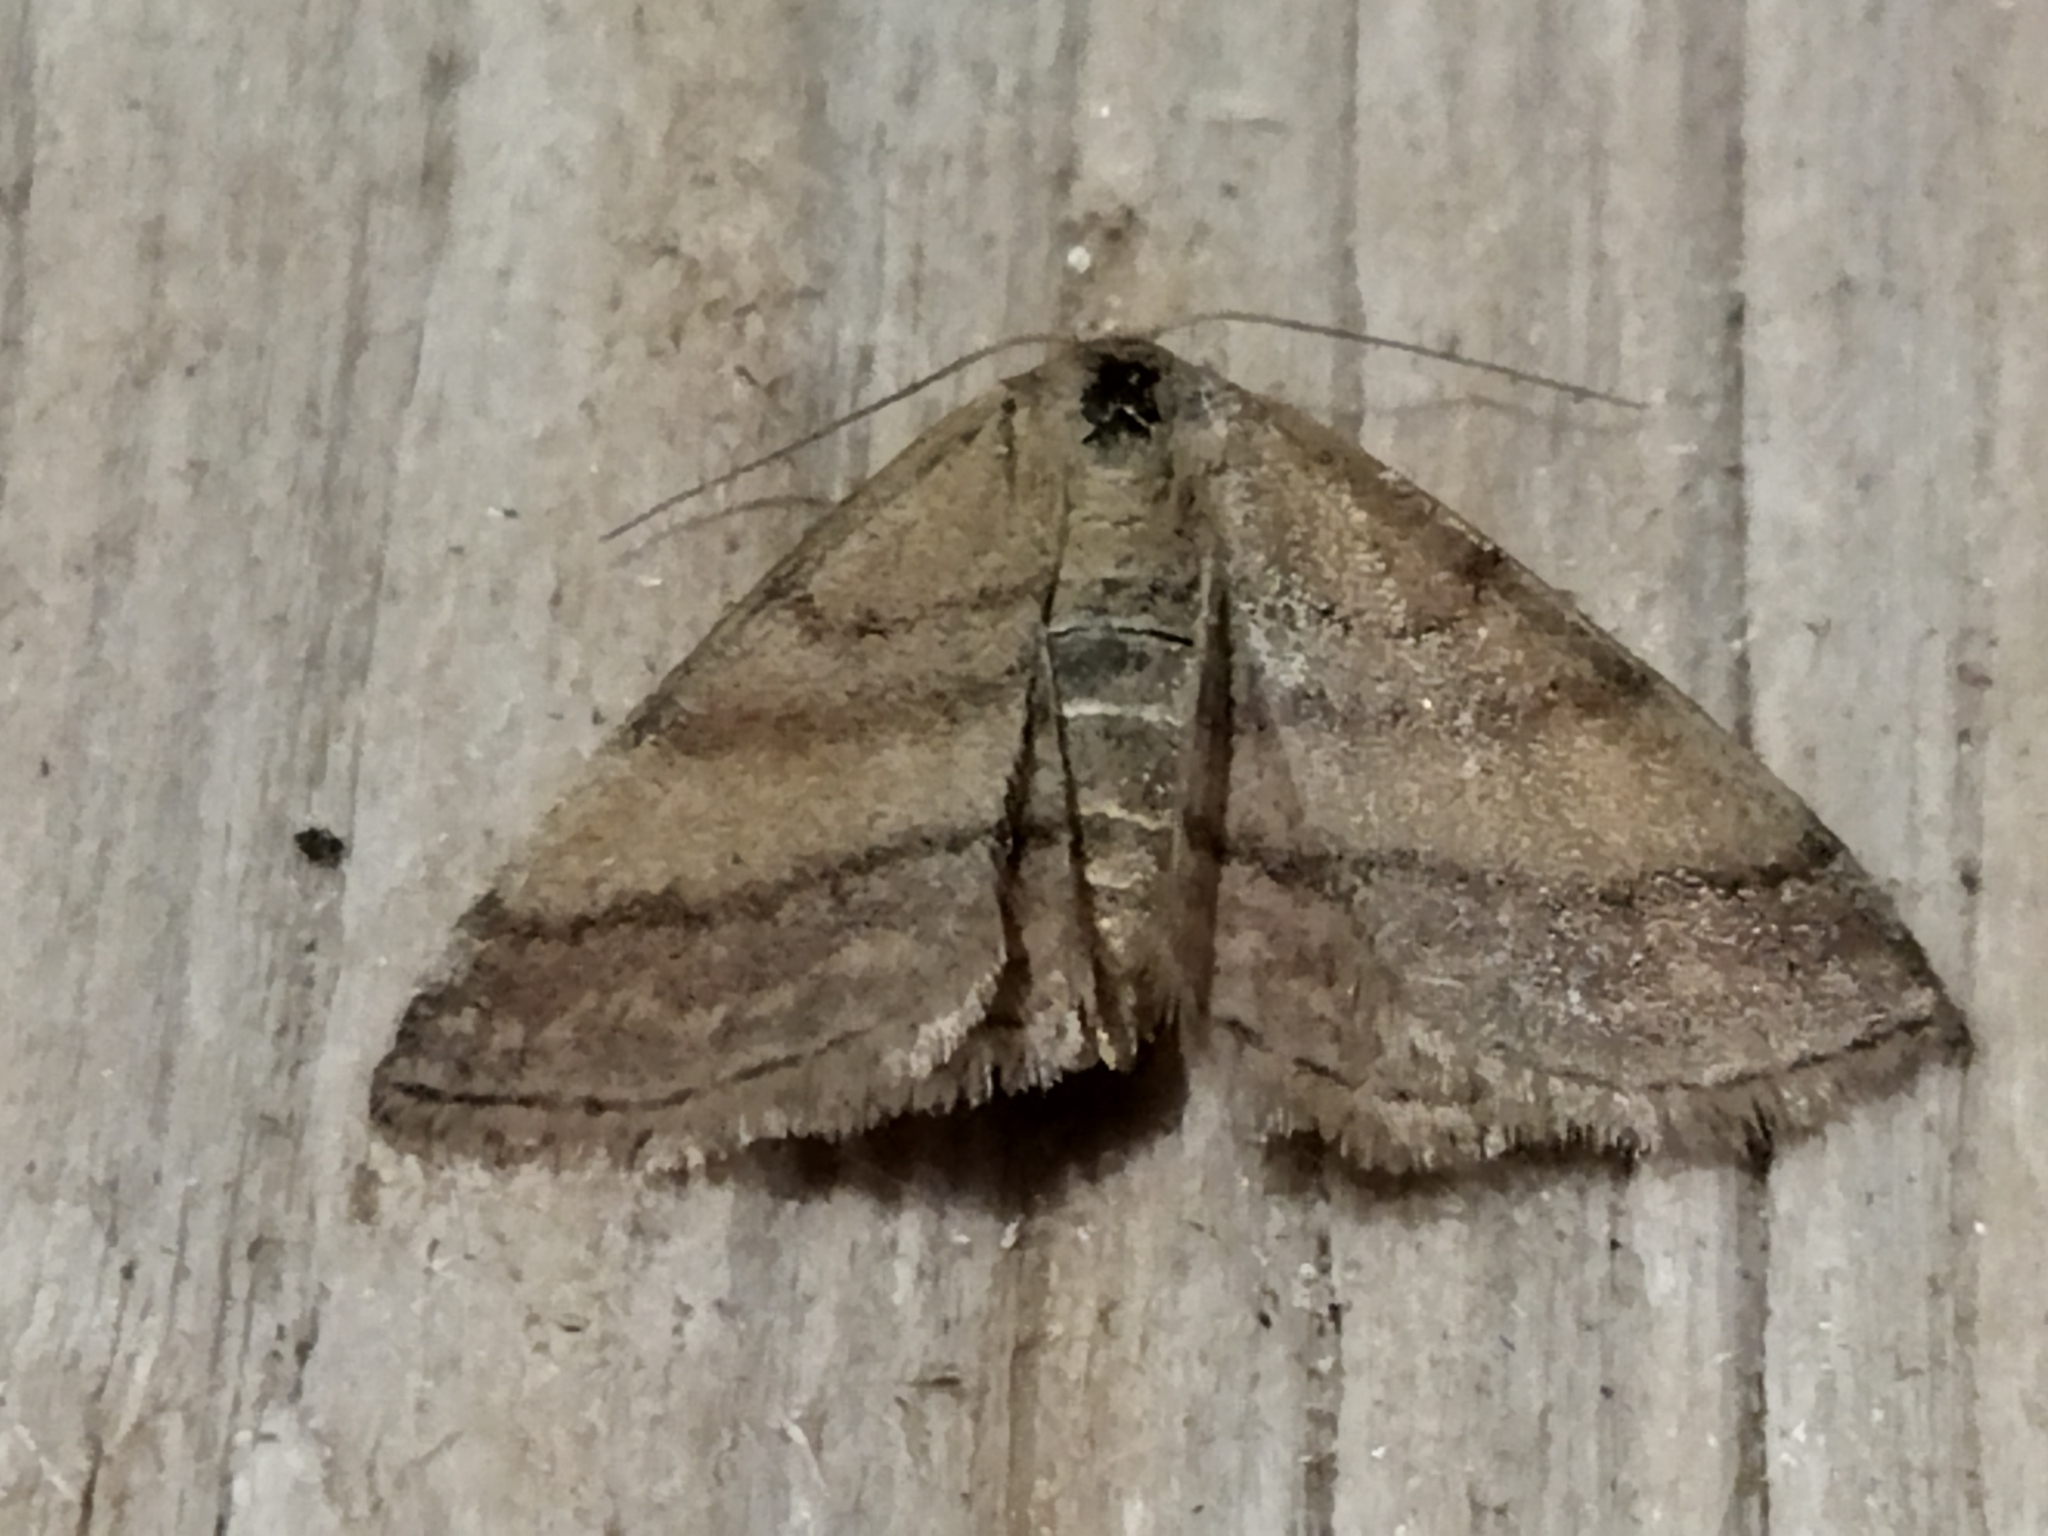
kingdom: Animalia
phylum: Arthropoda
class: Insecta
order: Lepidoptera
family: Geometridae
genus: Scopula
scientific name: Scopula rubiginata
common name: Tawny wave
